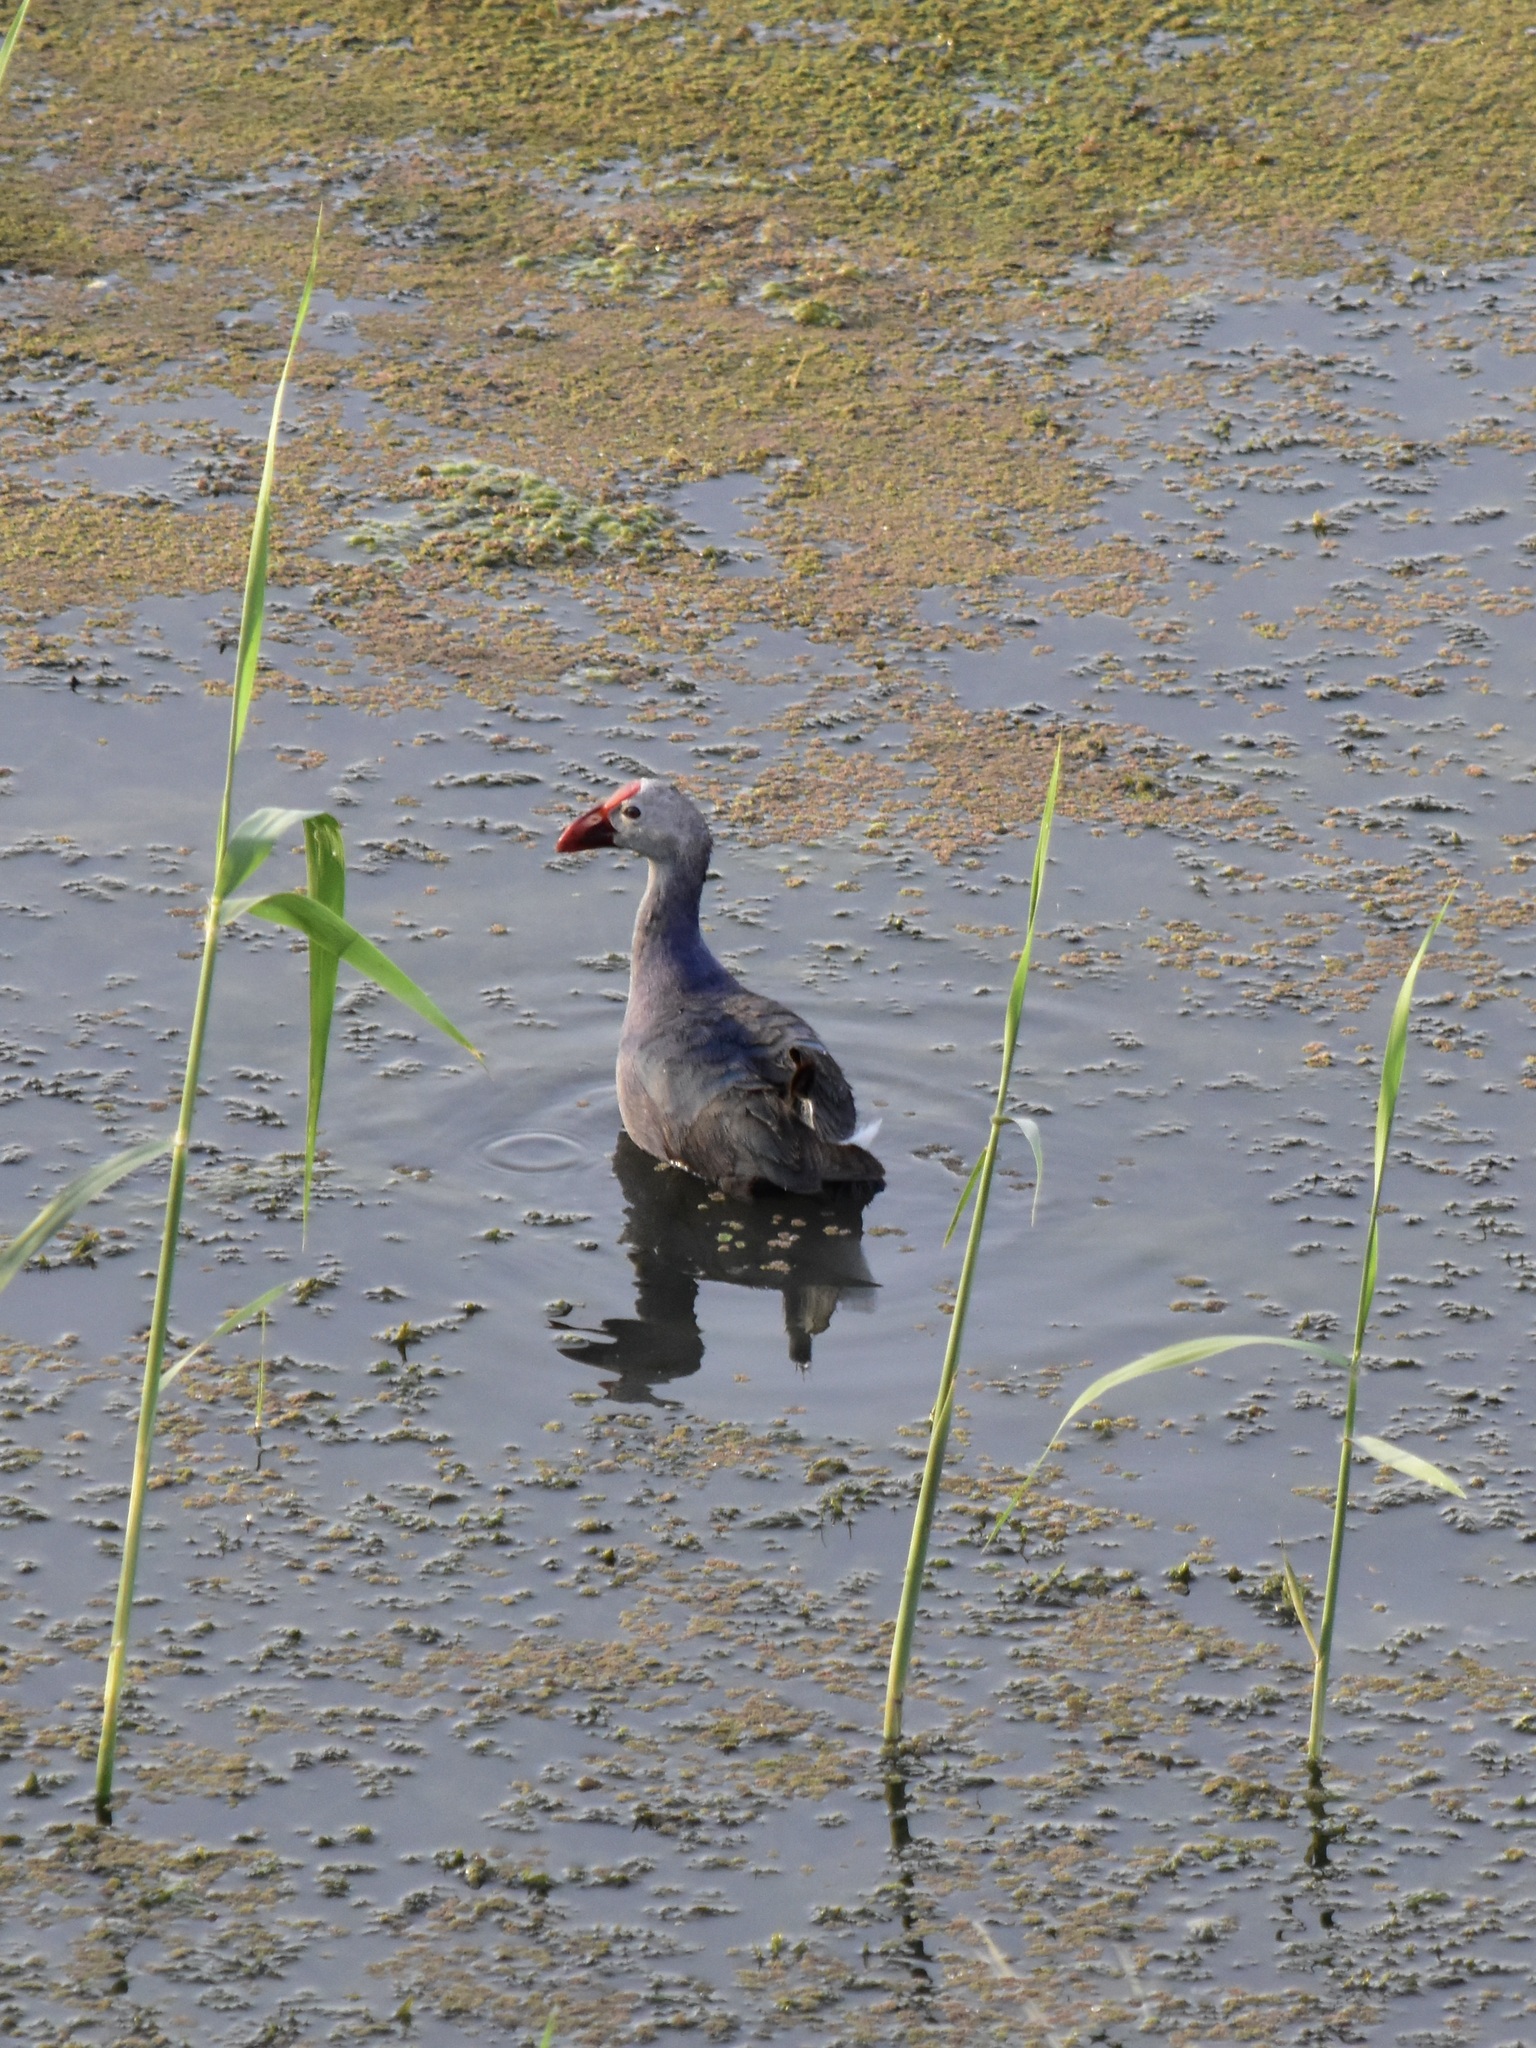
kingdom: Animalia
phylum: Chordata
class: Aves
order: Gruiformes
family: Rallidae
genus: Porphyrio
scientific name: Porphyrio porphyrio
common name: Purple swamphen
